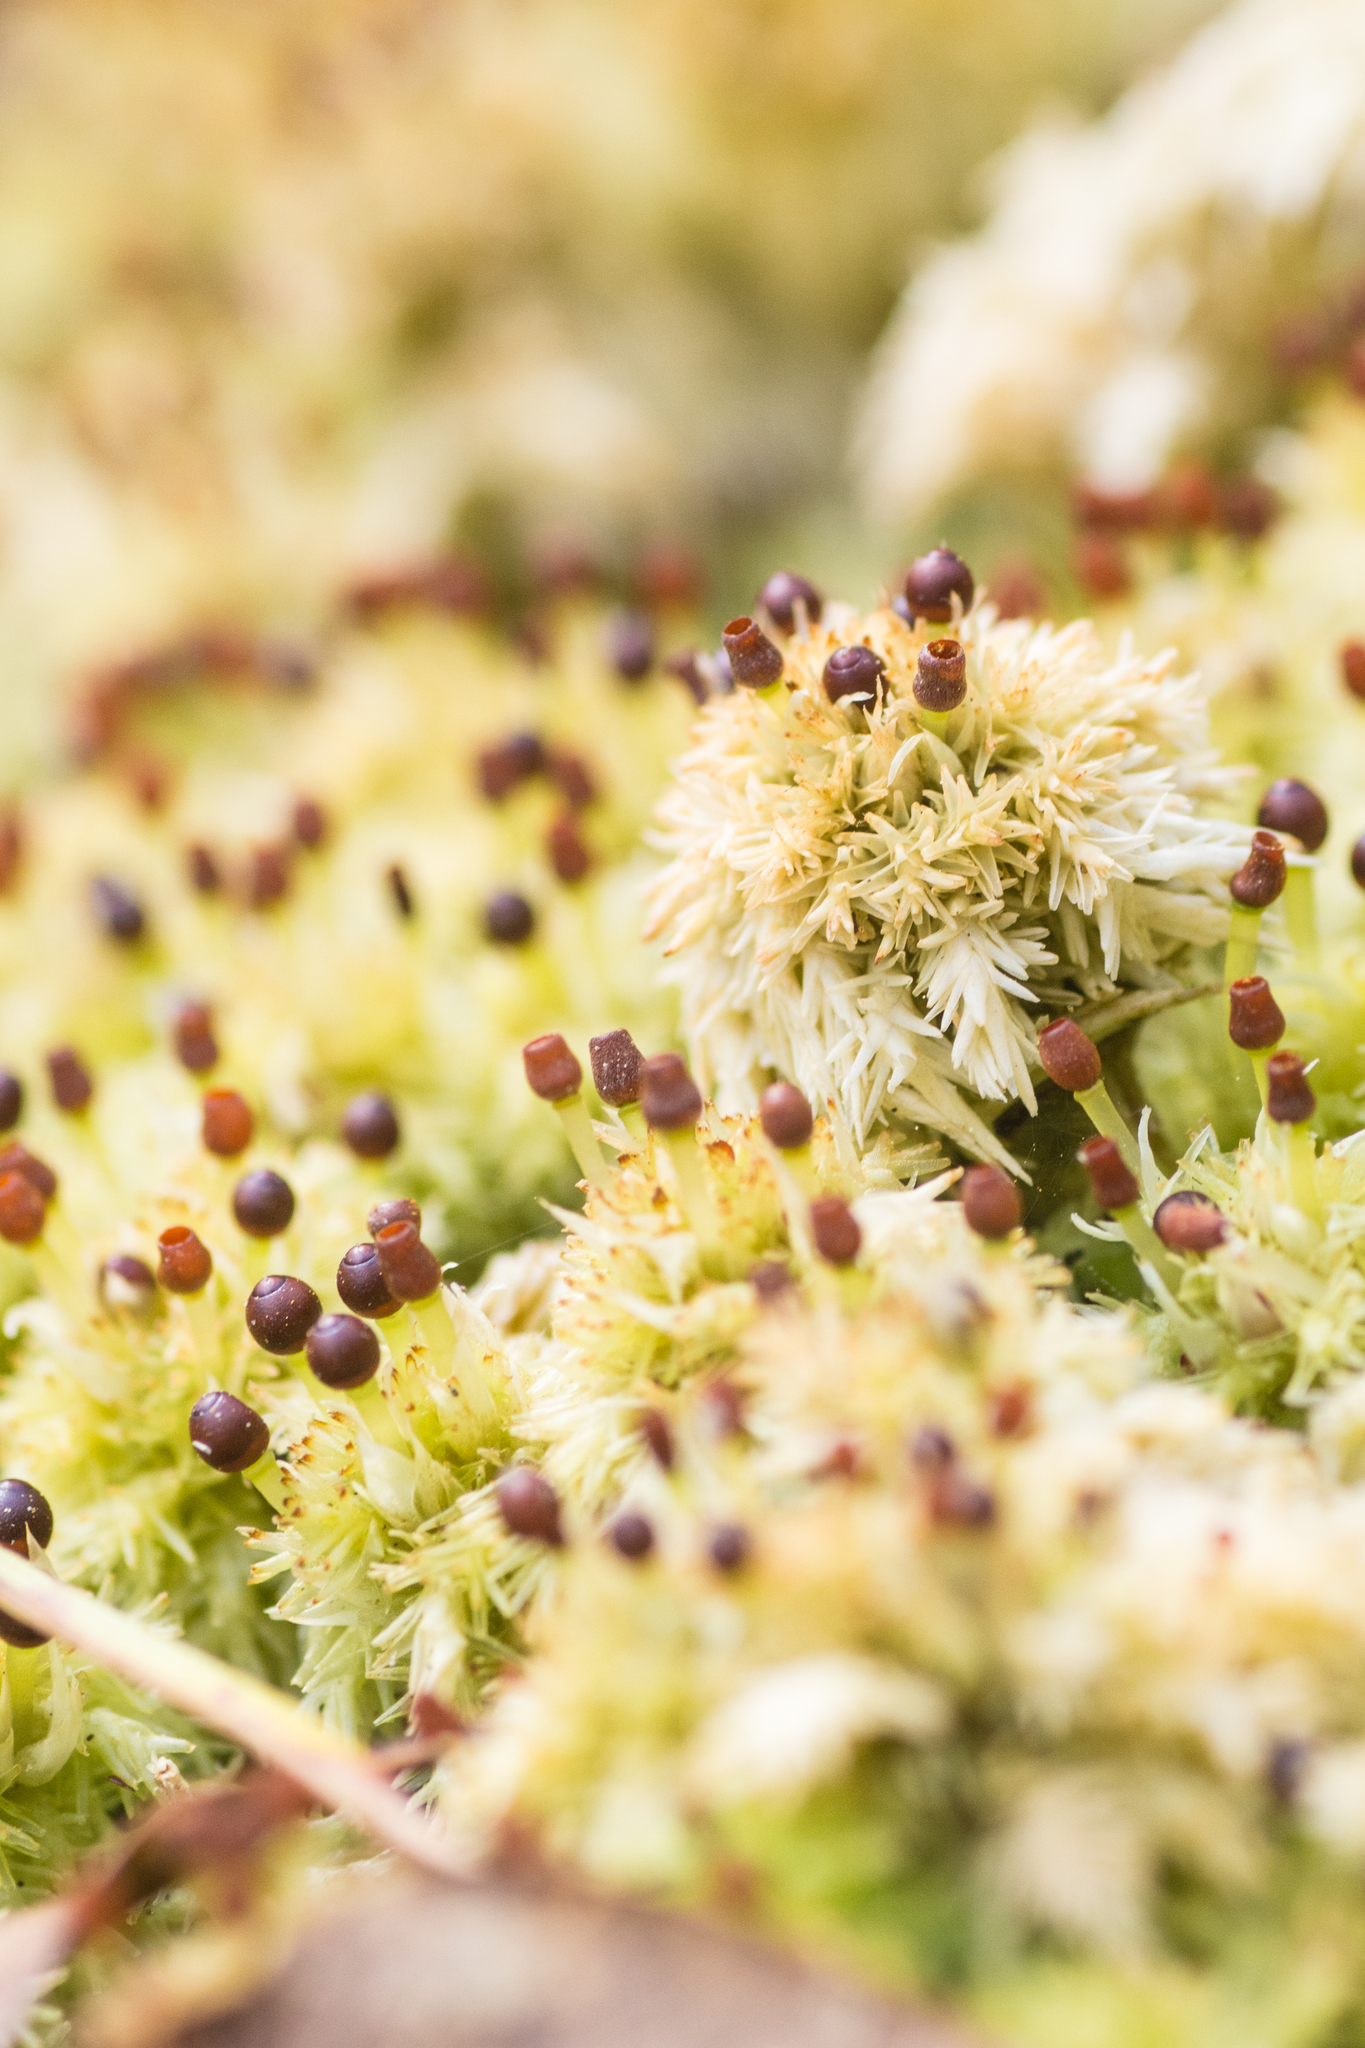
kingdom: Plantae
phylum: Bryophyta
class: Sphagnopsida
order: Sphagnales
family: Sphagnaceae
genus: Sphagnum
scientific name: Sphagnum strictum
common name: Pale bog-moss
